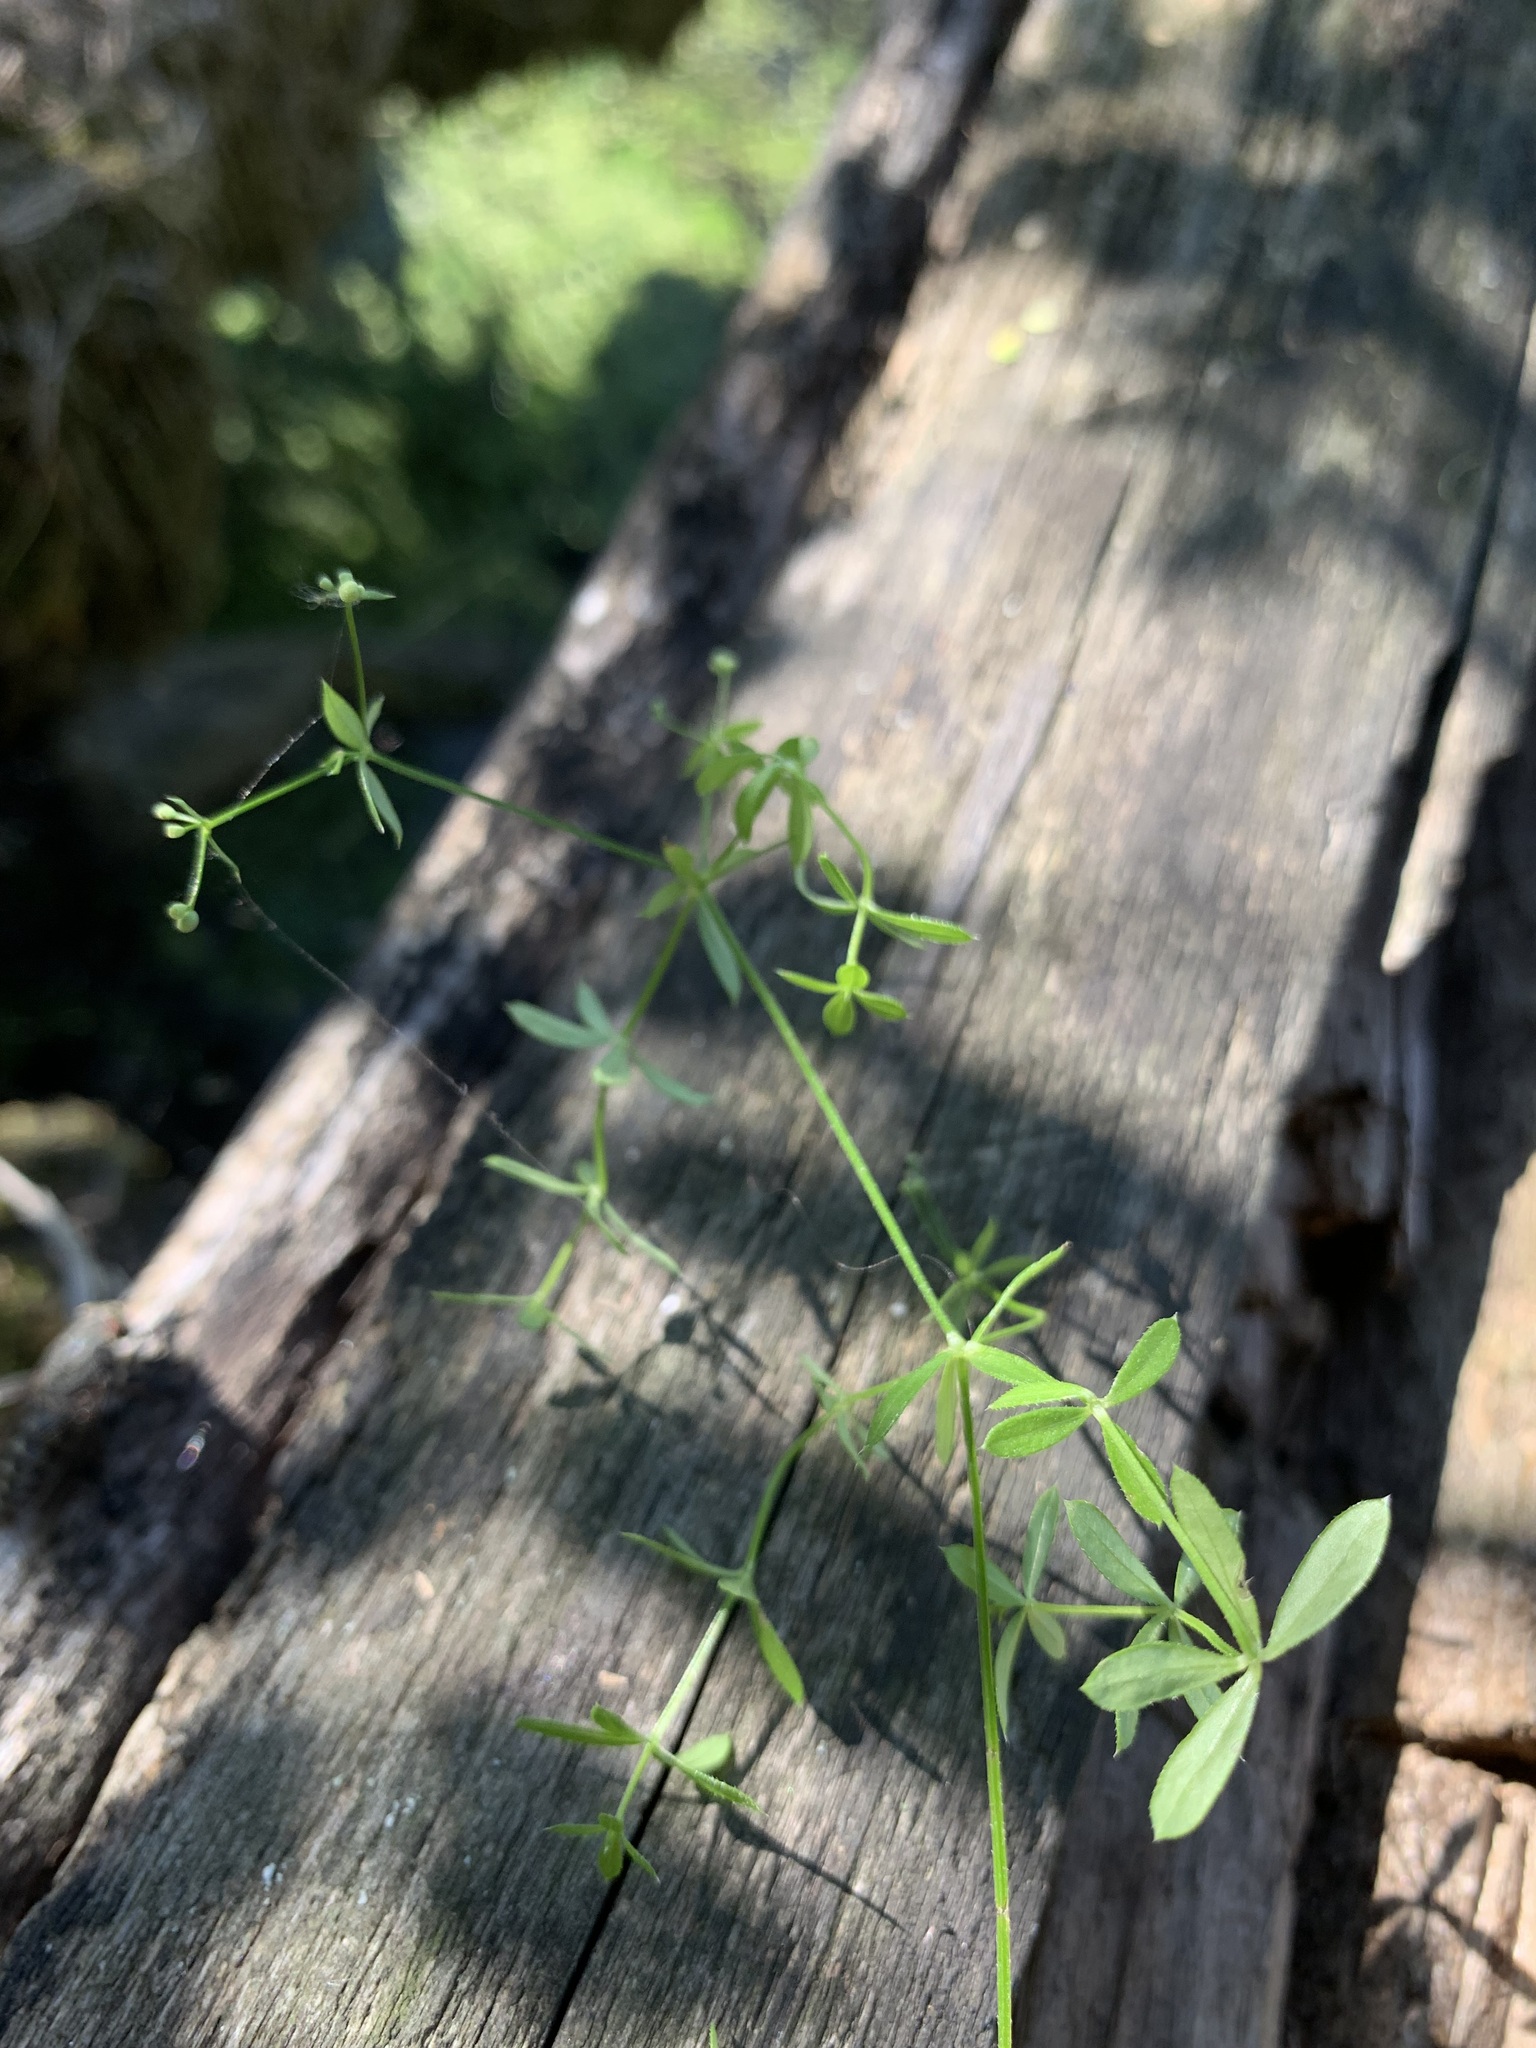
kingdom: Plantae
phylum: Tracheophyta
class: Magnoliopsida
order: Gentianales
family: Rubiaceae
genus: Galium
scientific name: Galium uliginosum
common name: Fen bedstraw
